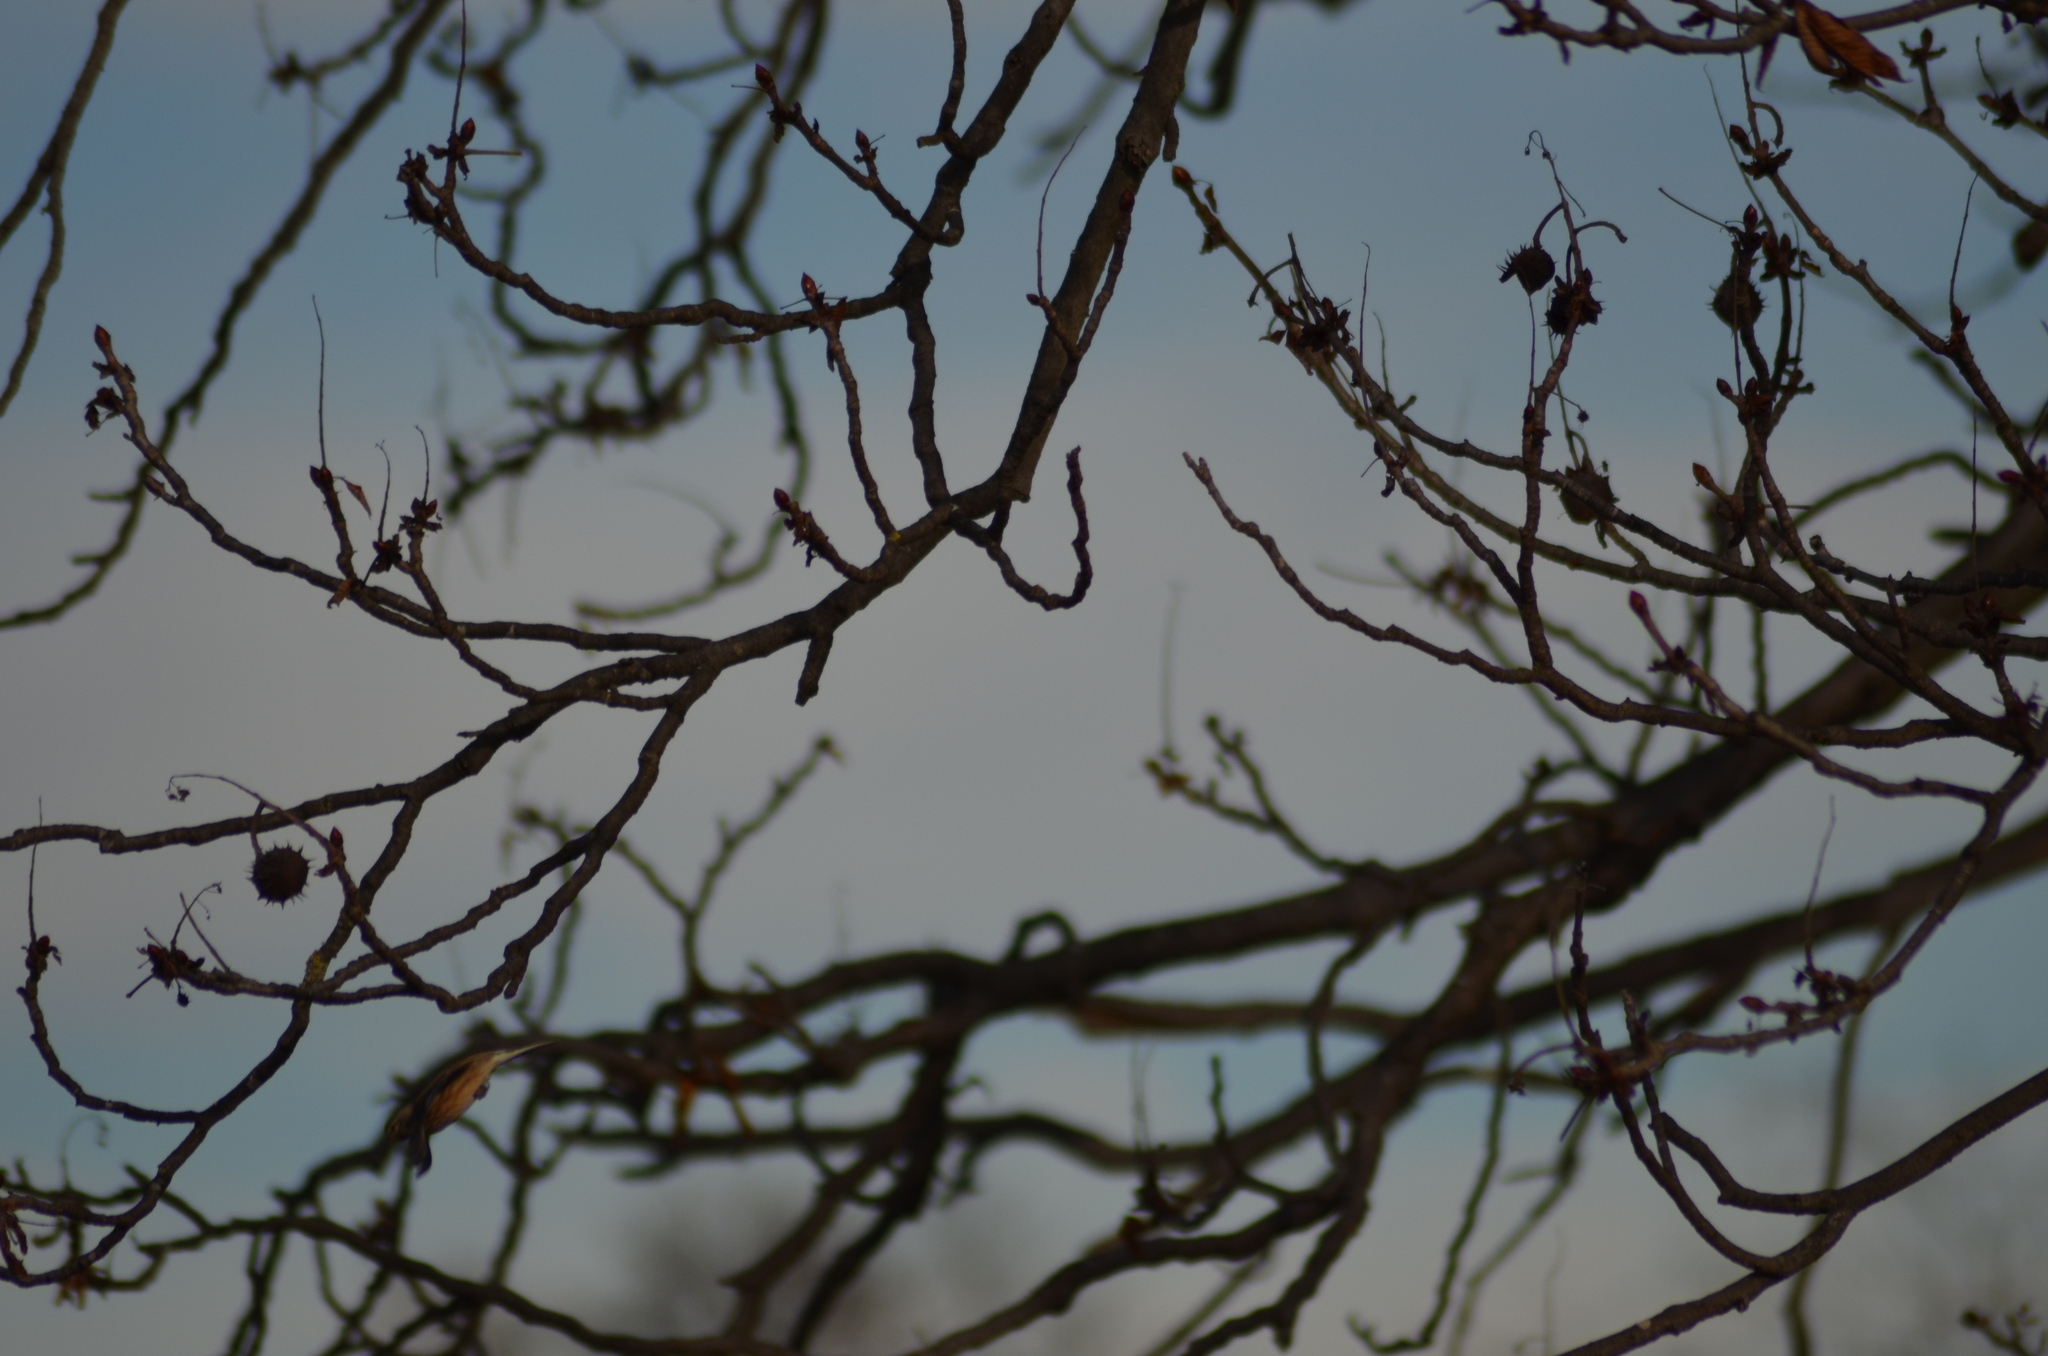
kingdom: Animalia
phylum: Chordata
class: Aves
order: Passeriformes
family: Fringillidae
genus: Linaria
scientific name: Linaria cannabina
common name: Common linnet
